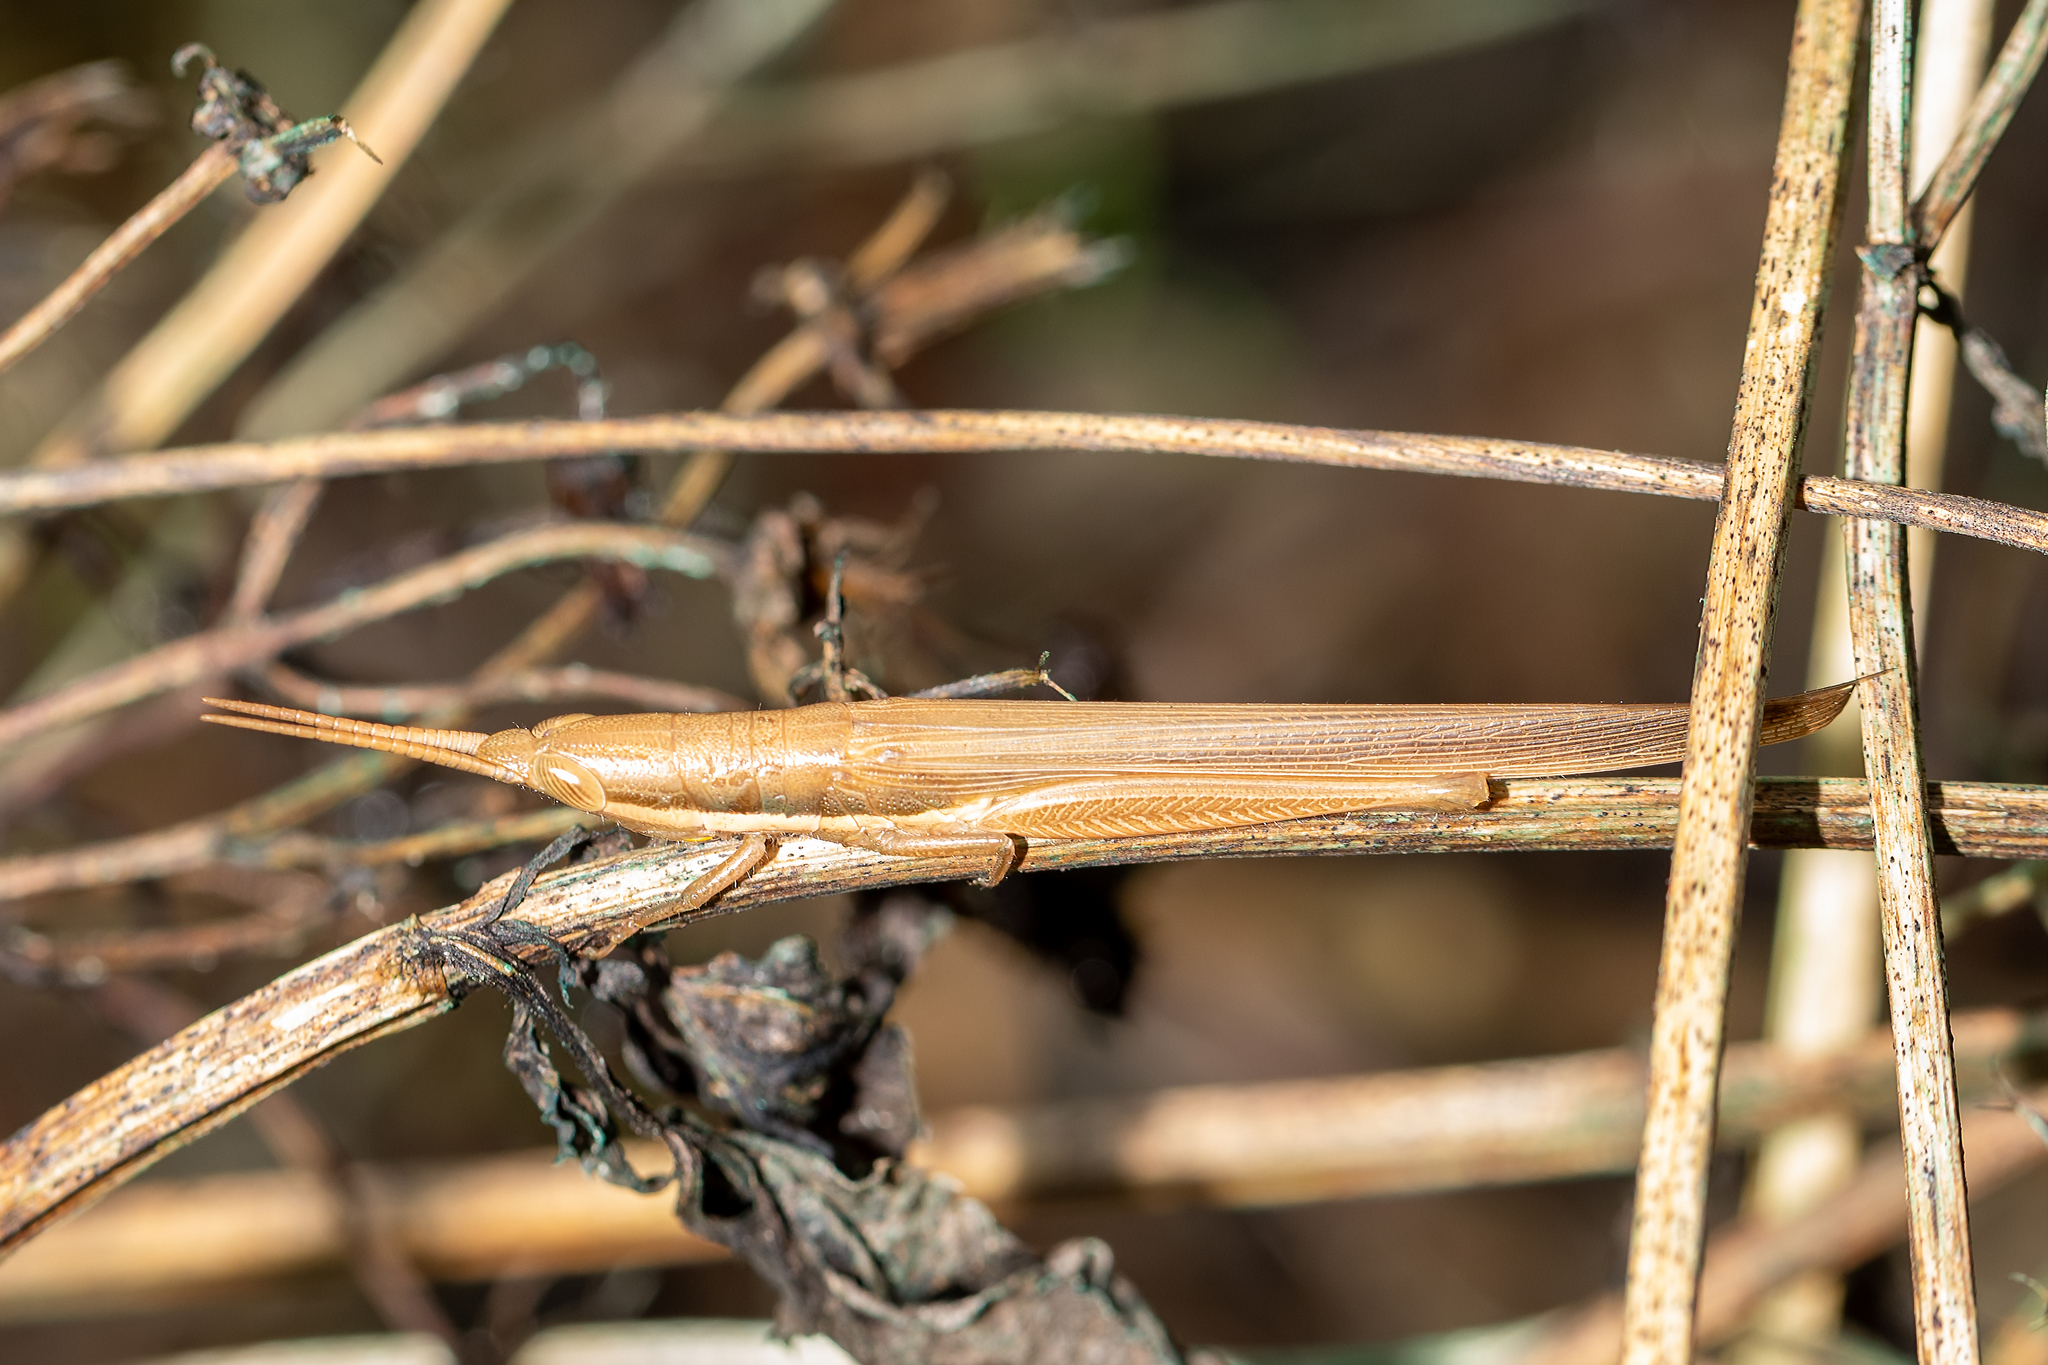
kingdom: Animalia
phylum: Arthropoda
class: Insecta
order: Orthoptera
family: Acrididae
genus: Leptysma
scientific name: Leptysma marginicollis
